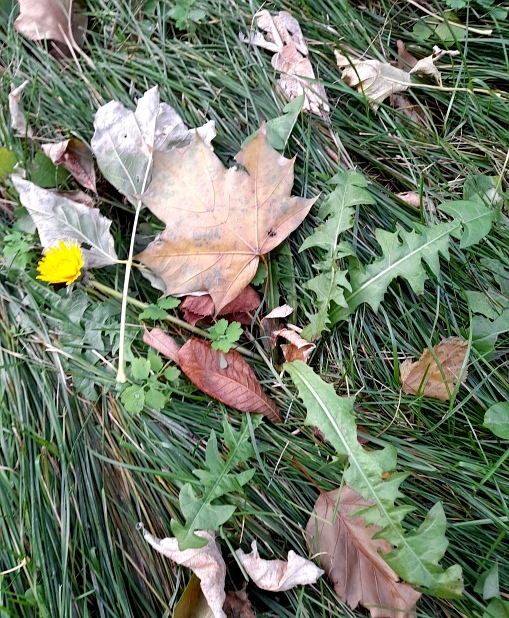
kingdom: Plantae
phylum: Tracheophyta
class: Magnoliopsida
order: Asterales
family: Asteraceae
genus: Taraxacum
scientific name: Taraxacum officinale
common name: Common dandelion
